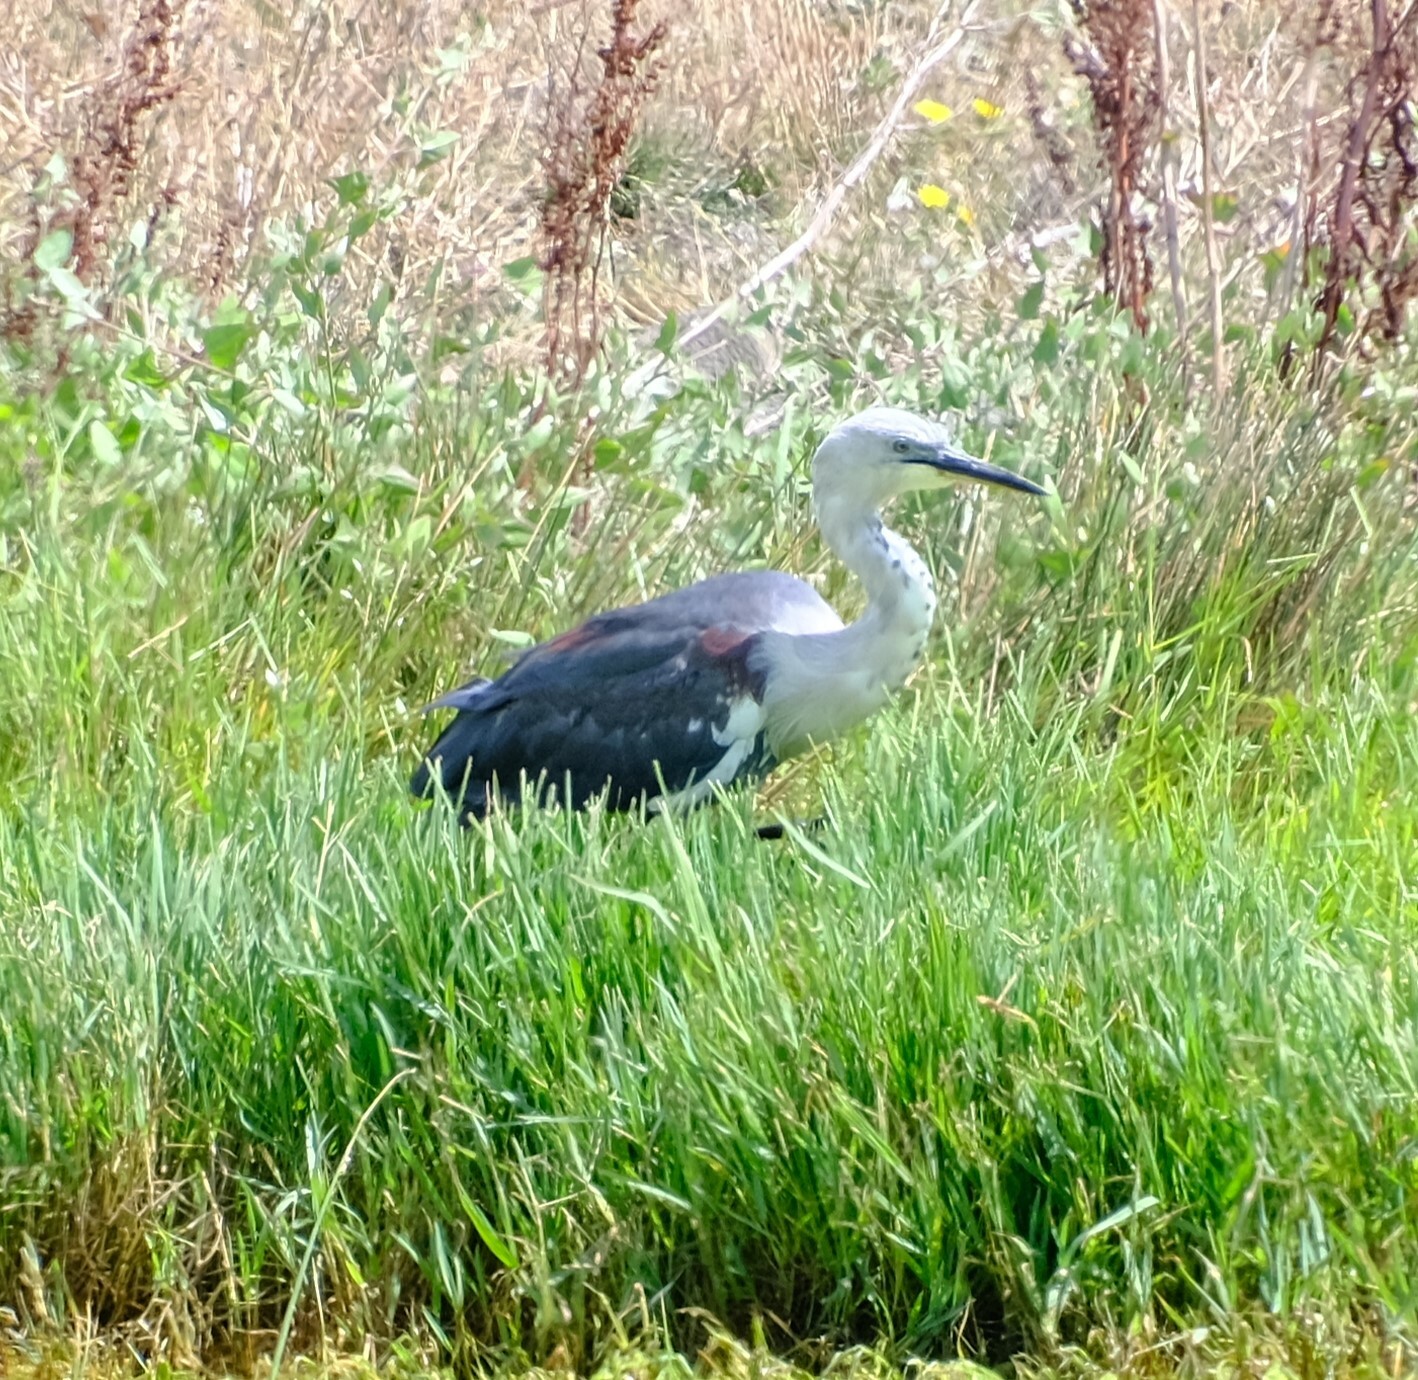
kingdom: Animalia
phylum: Chordata
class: Aves
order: Pelecaniformes
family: Ardeidae
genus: Ardea
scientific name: Ardea pacifica
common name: White-necked heron
